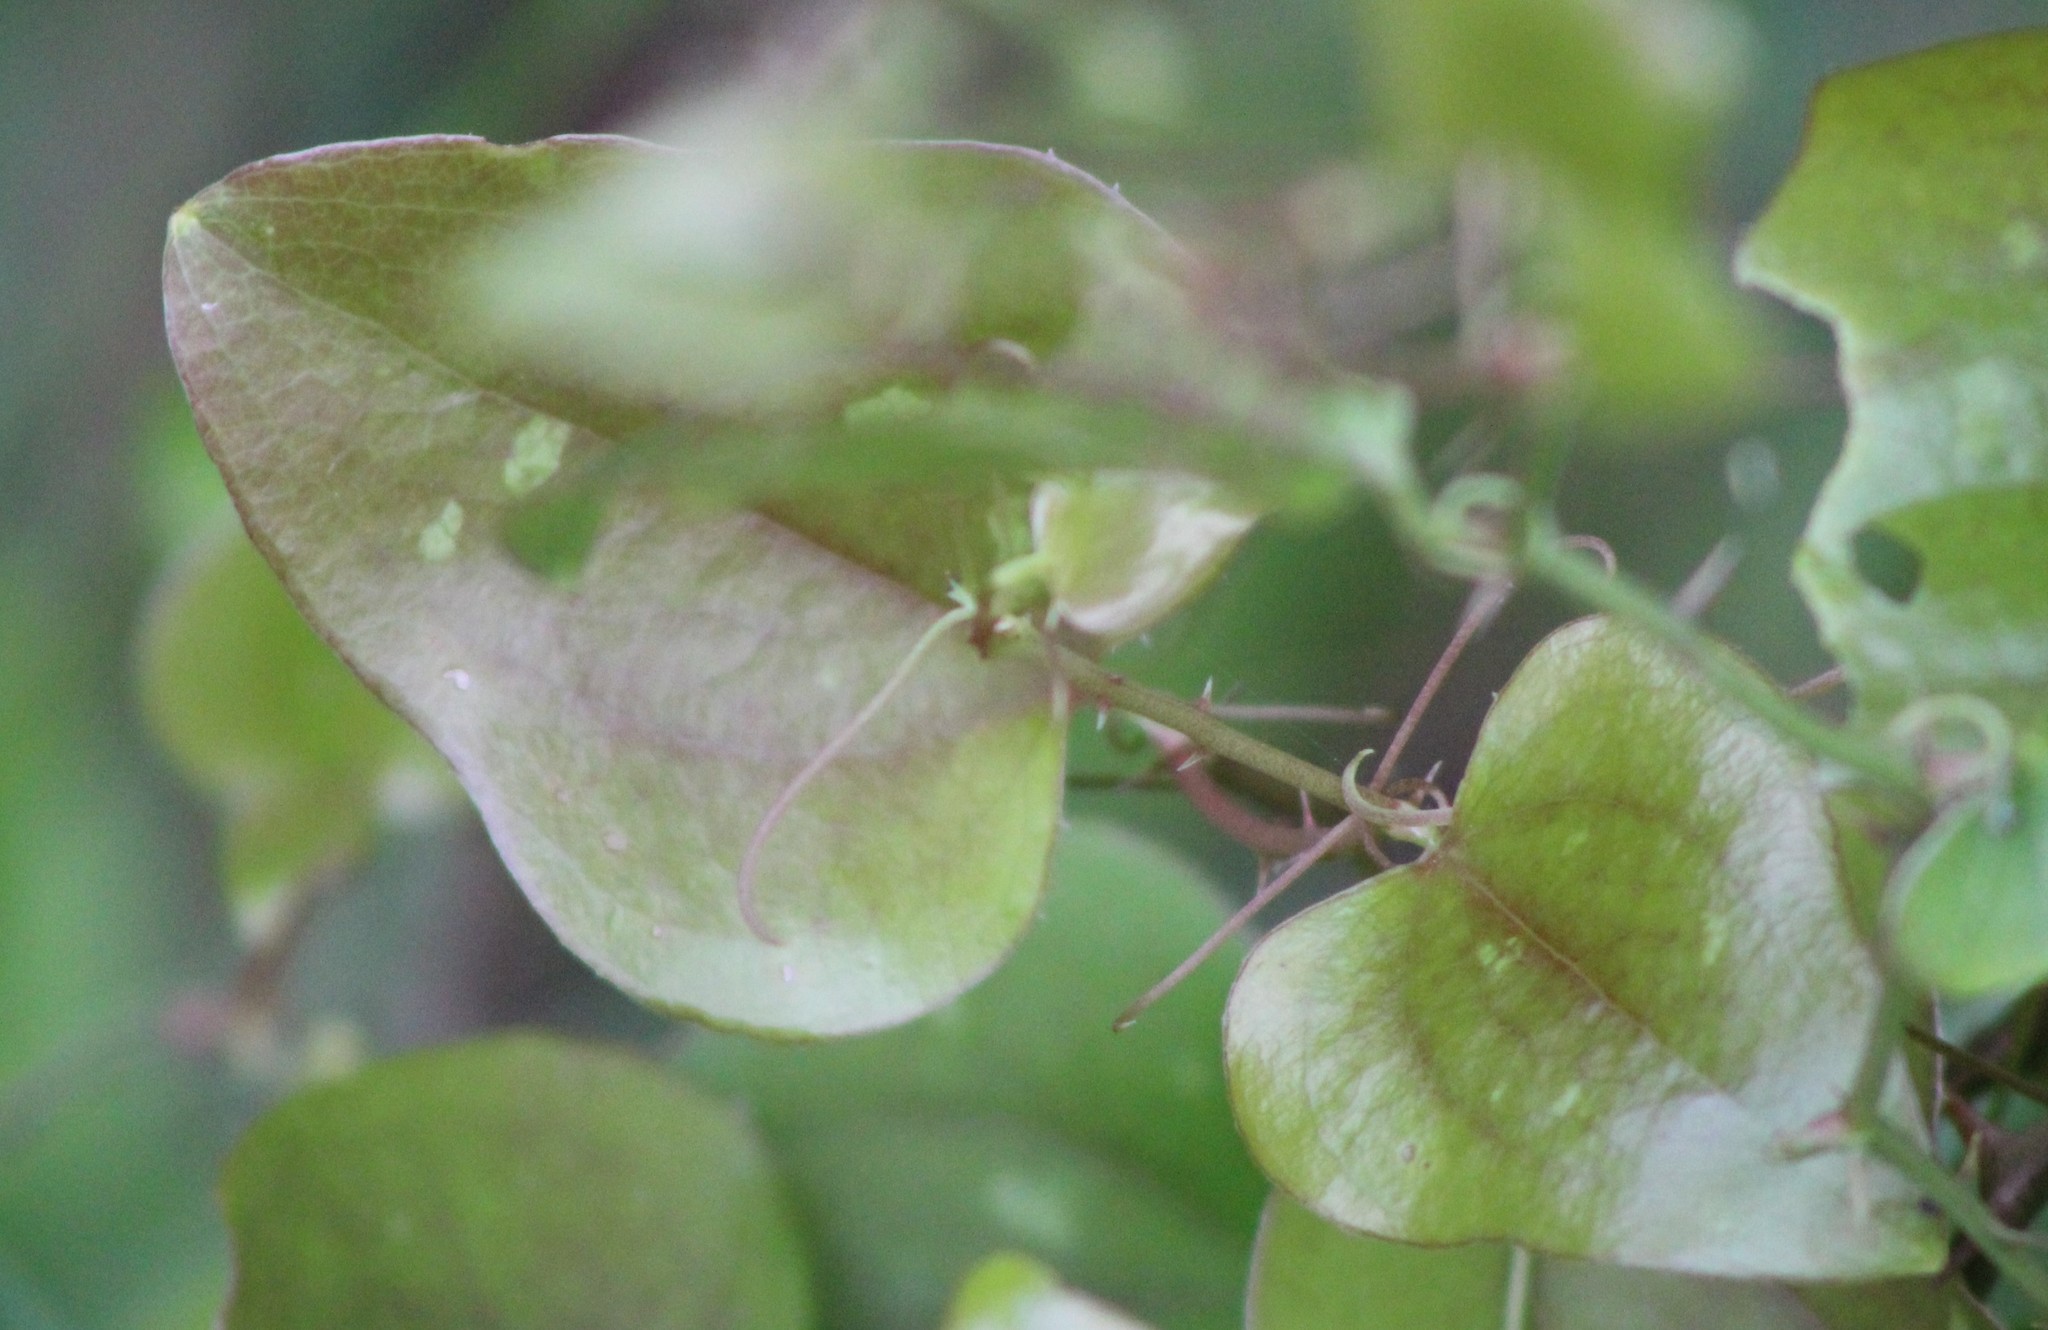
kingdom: Plantae
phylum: Tracheophyta
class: Liliopsida
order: Liliales
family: Smilacaceae
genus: Smilax
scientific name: Smilax bona-nox
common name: Catbrier
